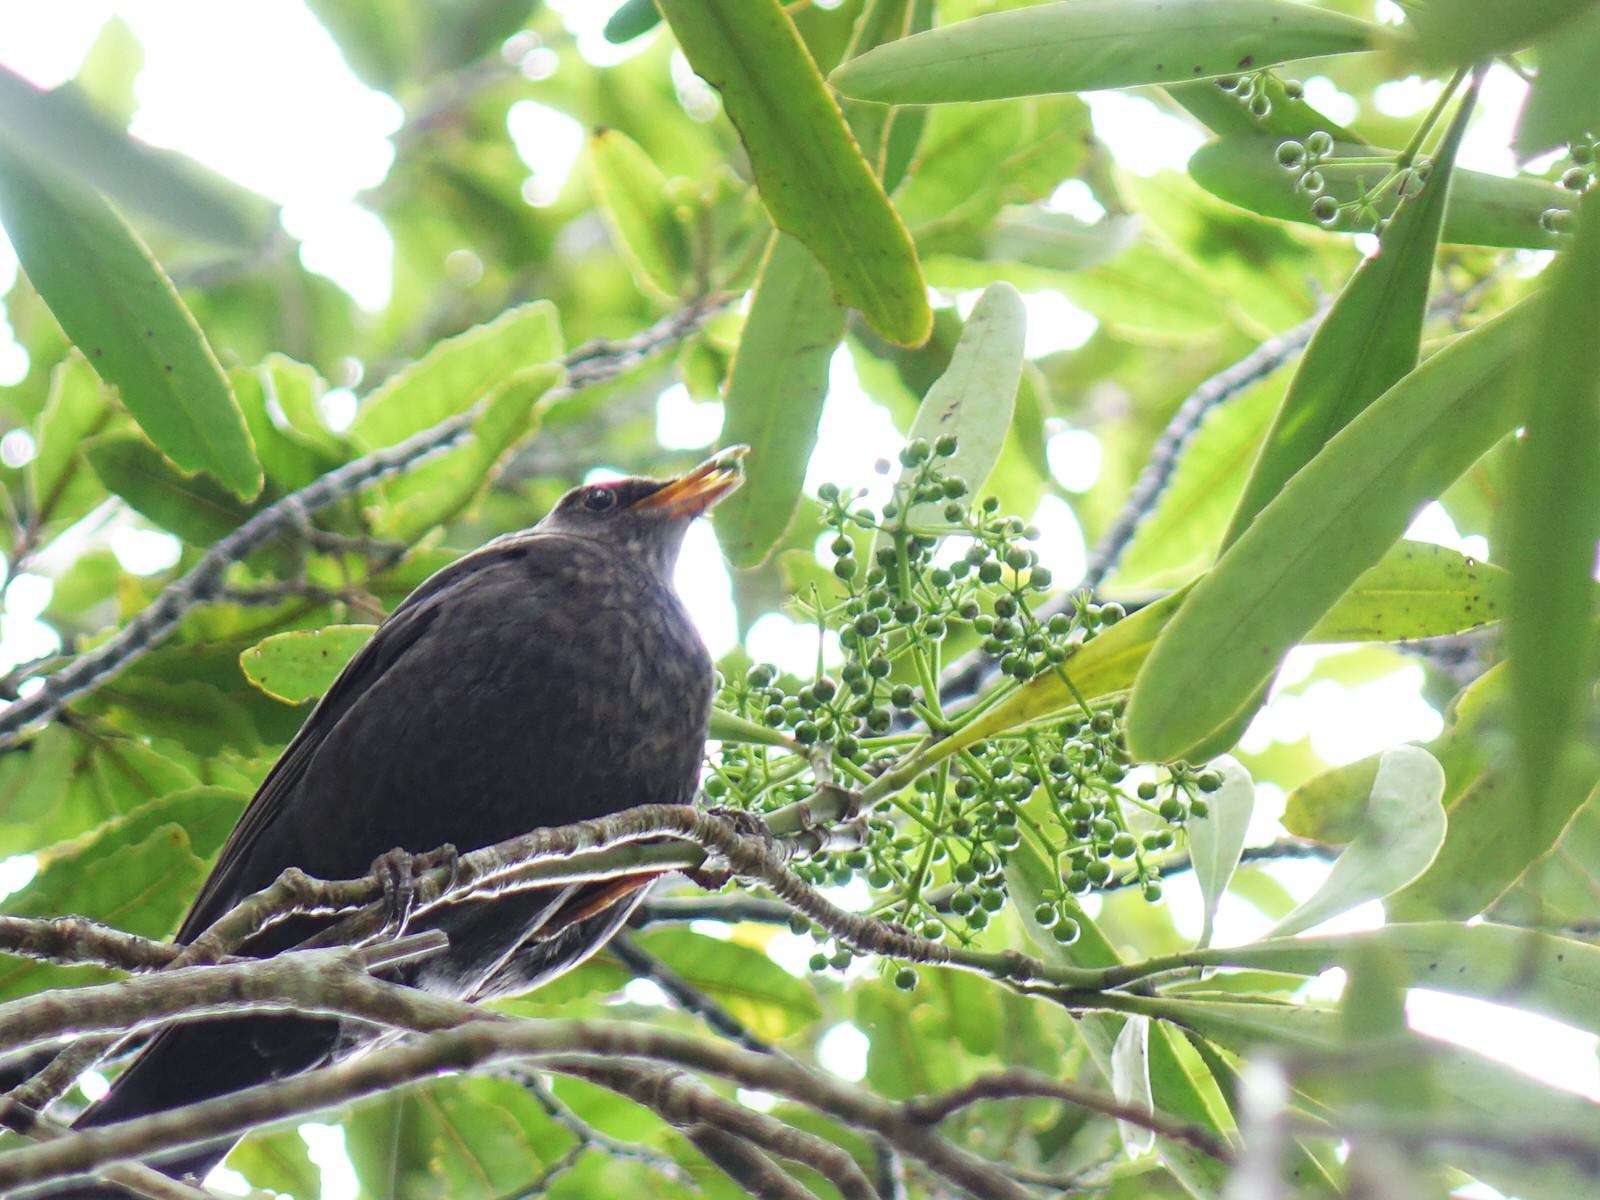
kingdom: Animalia
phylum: Chordata
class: Aves
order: Passeriformes
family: Turdidae
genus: Turdus
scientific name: Turdus merula
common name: Common blackbird
